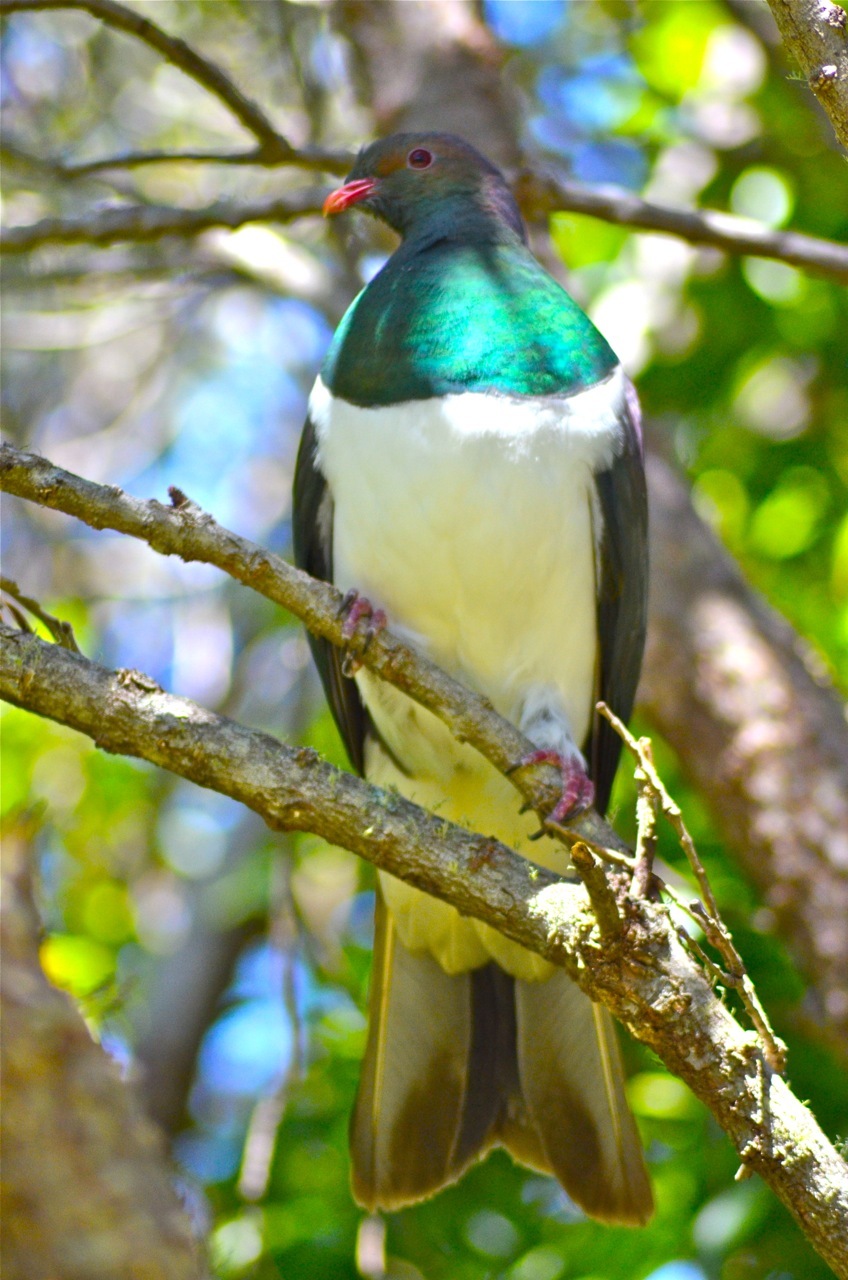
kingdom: Animalia
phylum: Chordata
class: Aves
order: Columbiformes
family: Columbidae
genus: Hemiphaga
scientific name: Hemiphaga novaeseelandiae
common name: New zealand pigeon
